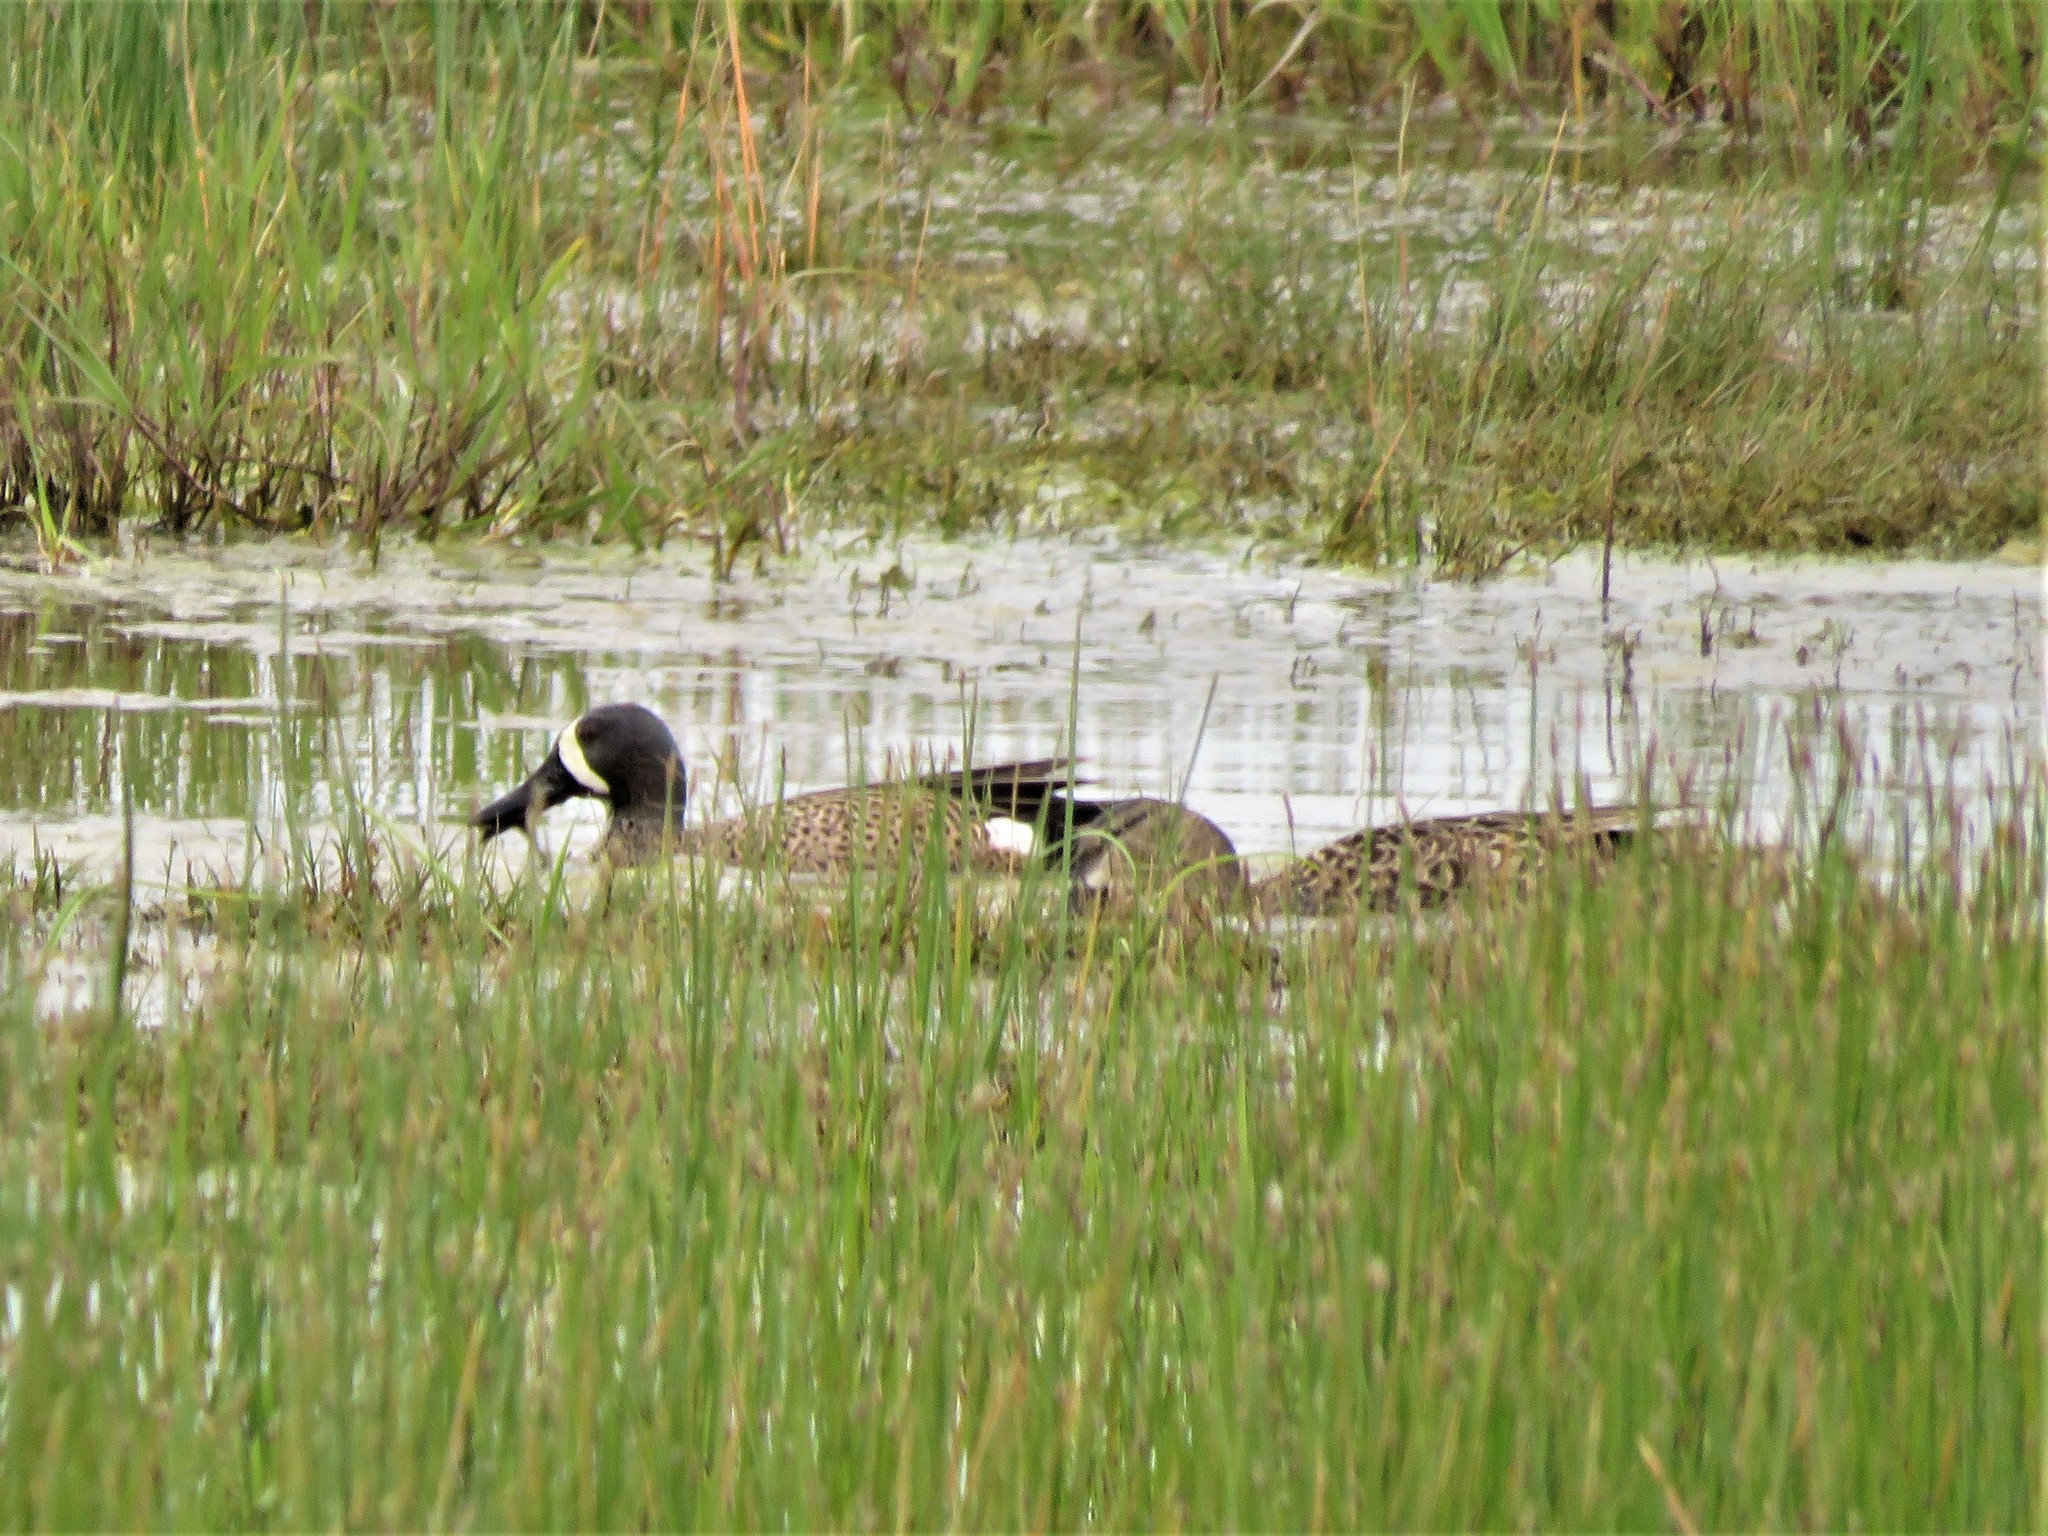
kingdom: Animalia
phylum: Chordata
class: Aves
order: Anseriformes
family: Anatidae
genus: Spatula
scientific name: Spatula discors
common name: Blue-winged teal
